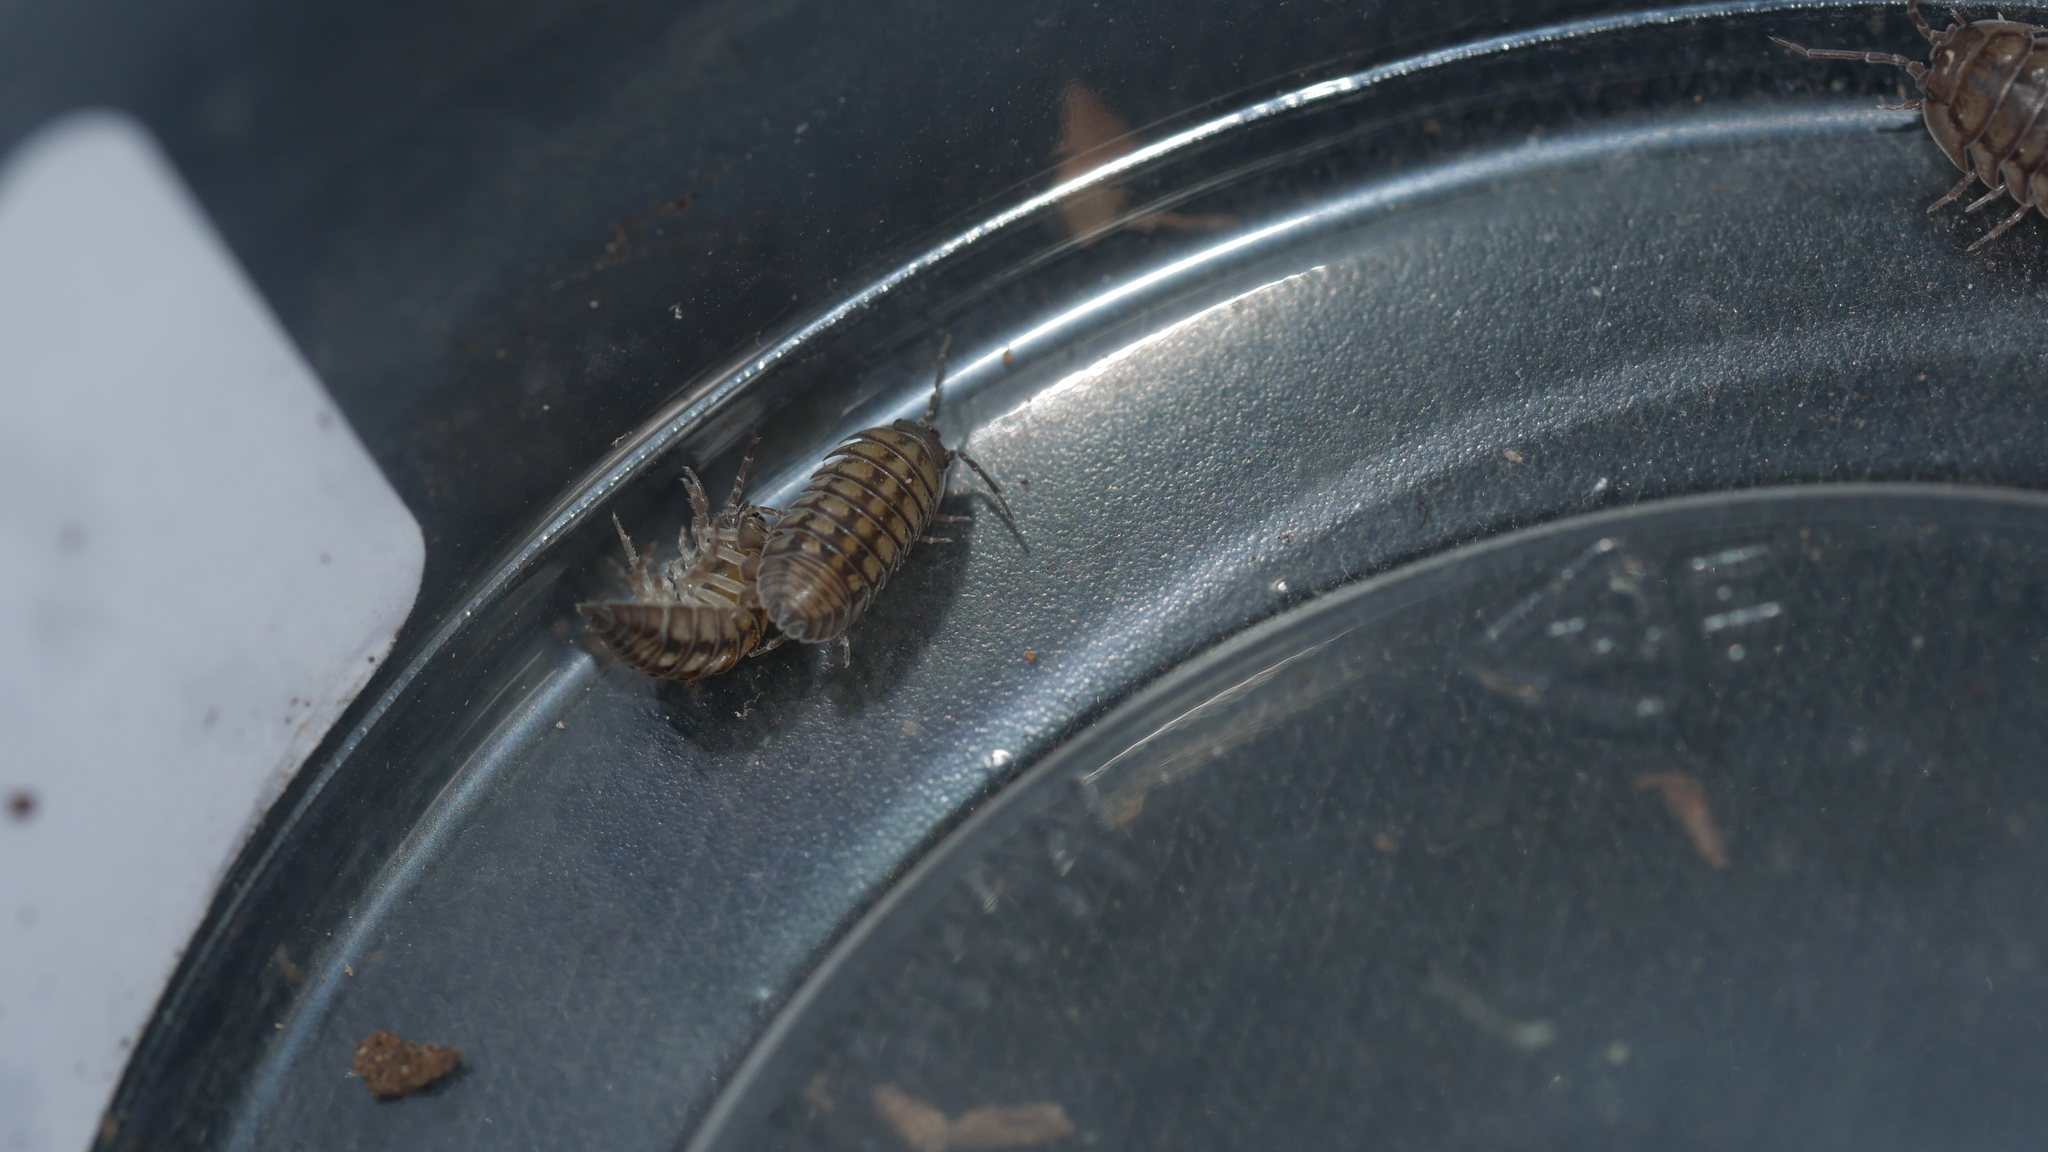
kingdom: Animalia
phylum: Arthropoda
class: Malacostraca
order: Isopoda
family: Armadillidiidae
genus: Armadillidium
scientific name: Armadillidium nasatum
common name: Isopod
